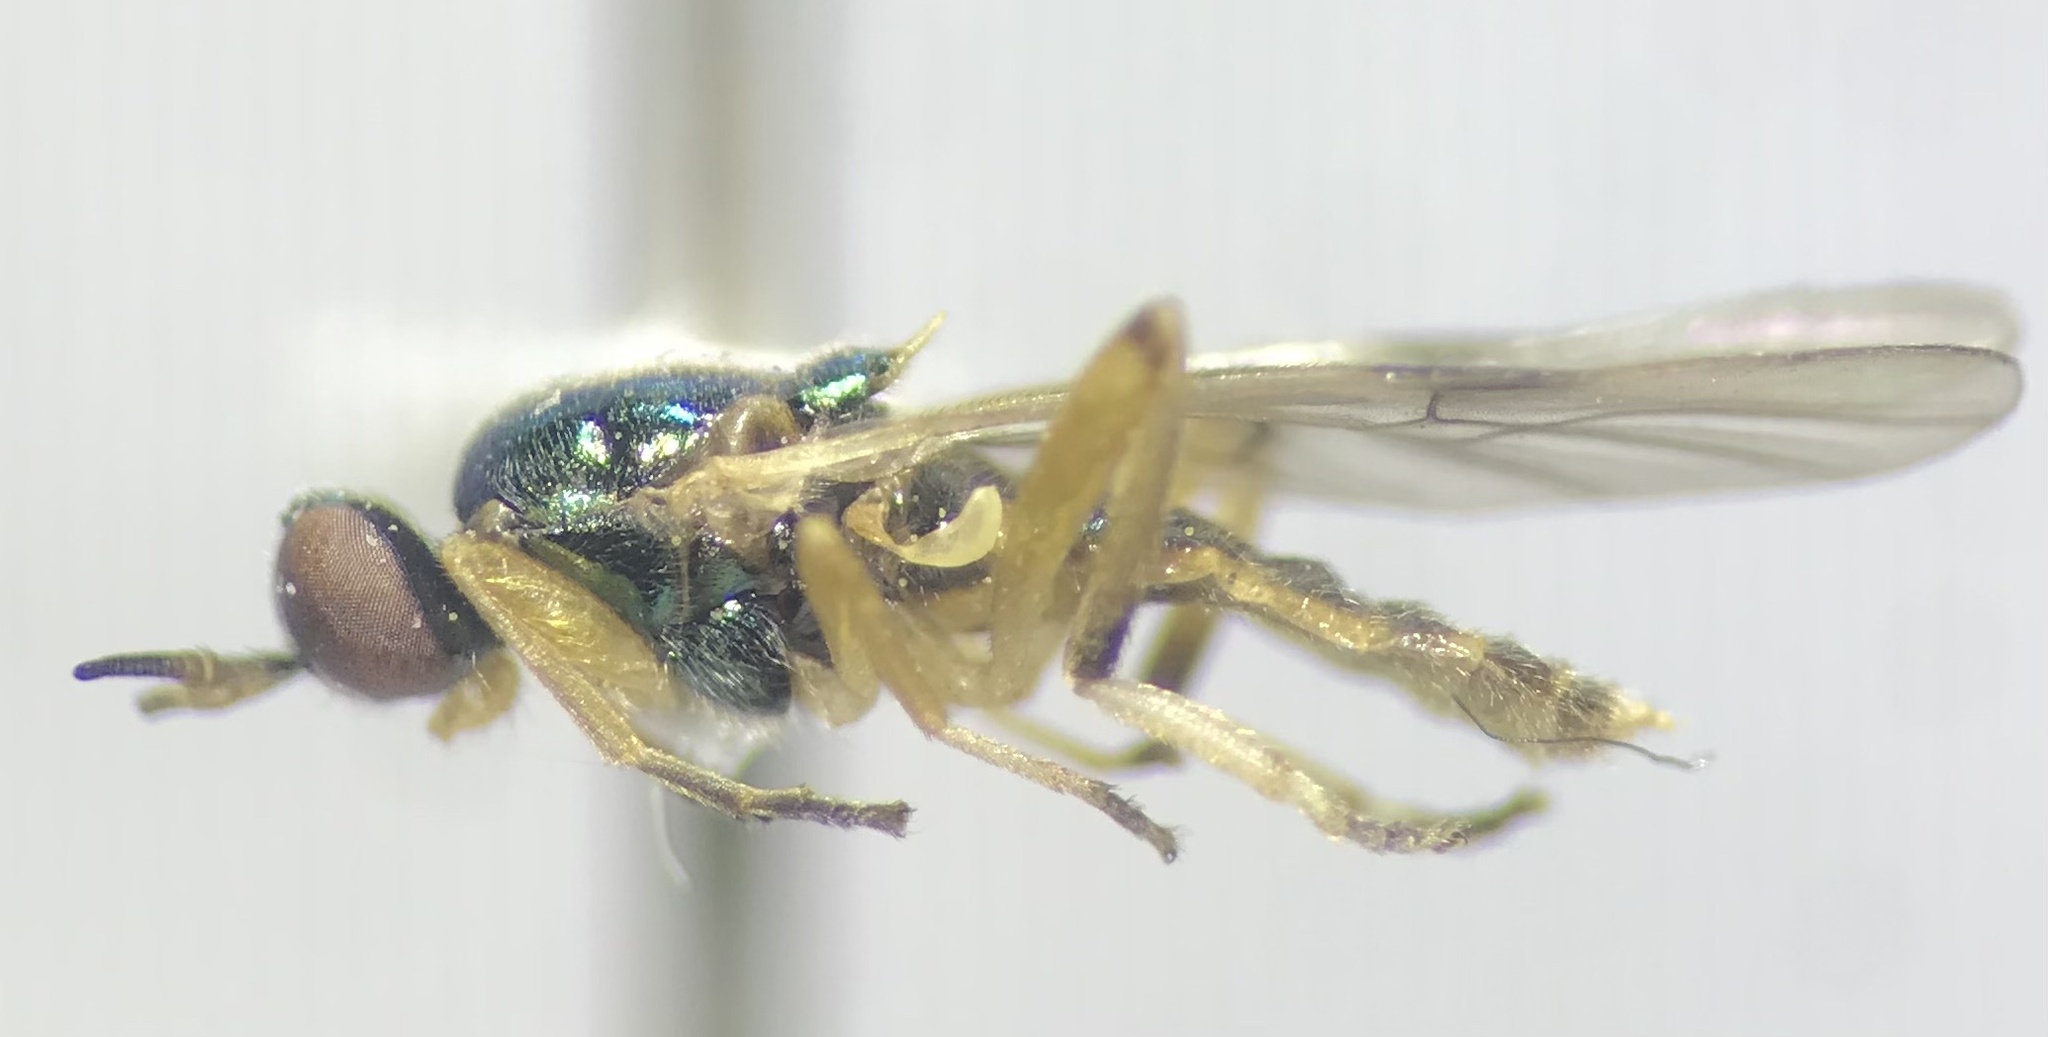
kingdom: Animalia
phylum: Arthropoda
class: Insecta
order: Diptera
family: Stratiomyidae
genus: Actina
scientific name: Actina viridis
